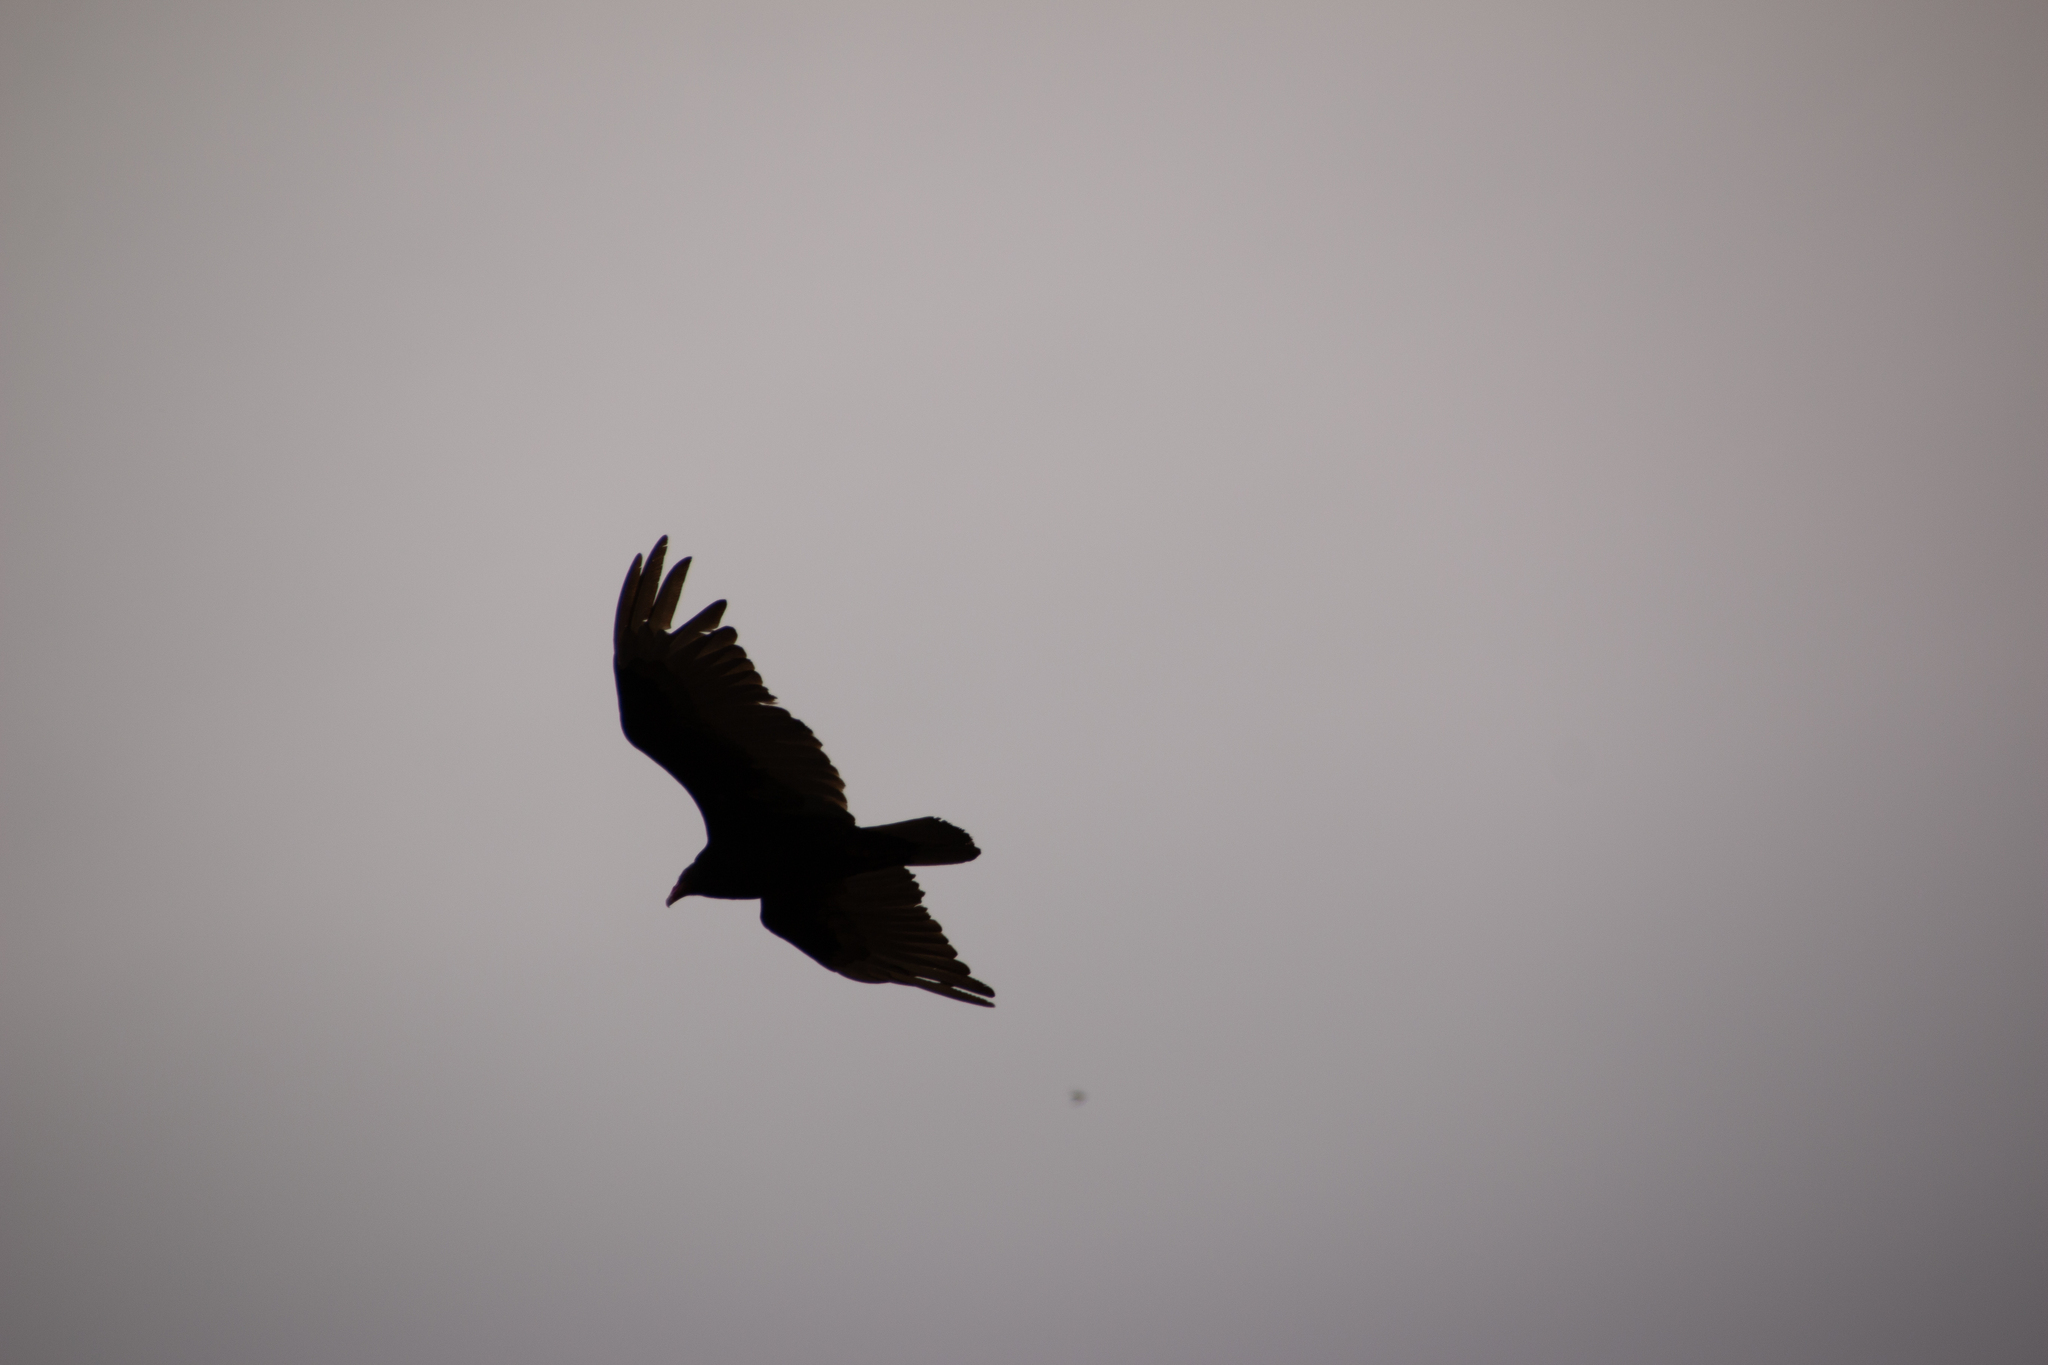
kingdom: Animalia
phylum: Chordata
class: Aves
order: Accipitriformes
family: Cathartidae
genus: Cathartes
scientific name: Cathartes aura
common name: Turkey vulture
